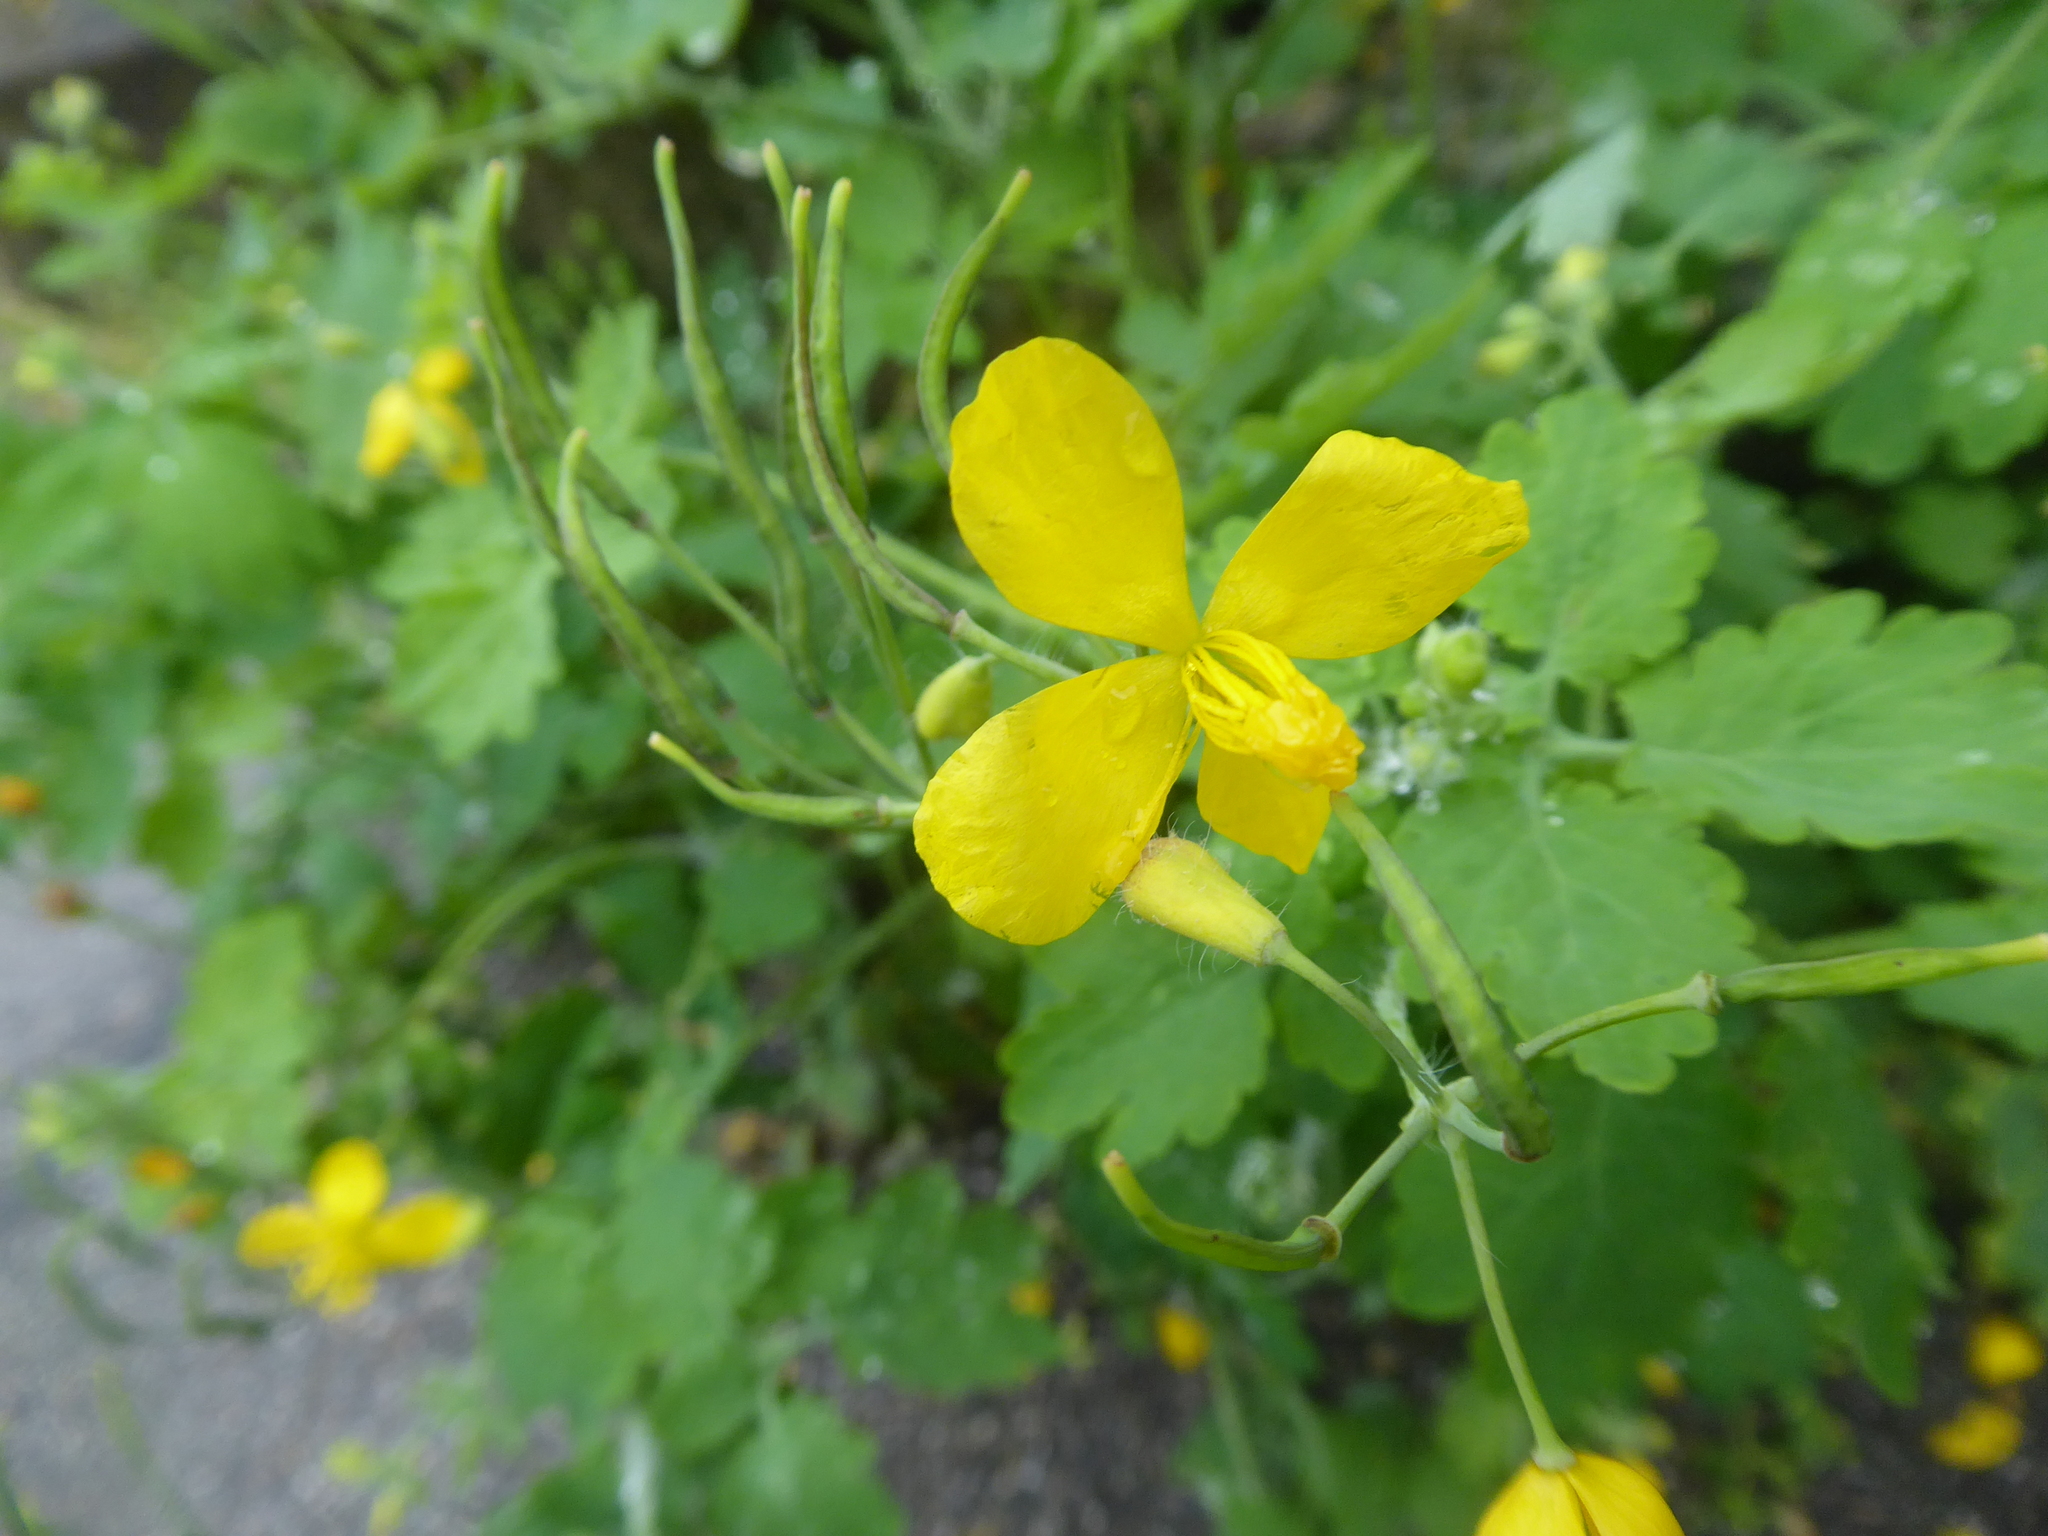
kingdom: Plantae
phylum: Tracheophyta
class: Magnoliopsida
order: Ranunculales
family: Papaveraceae
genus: Chelidonium
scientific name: Chelidonium majus
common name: Greater celandine
